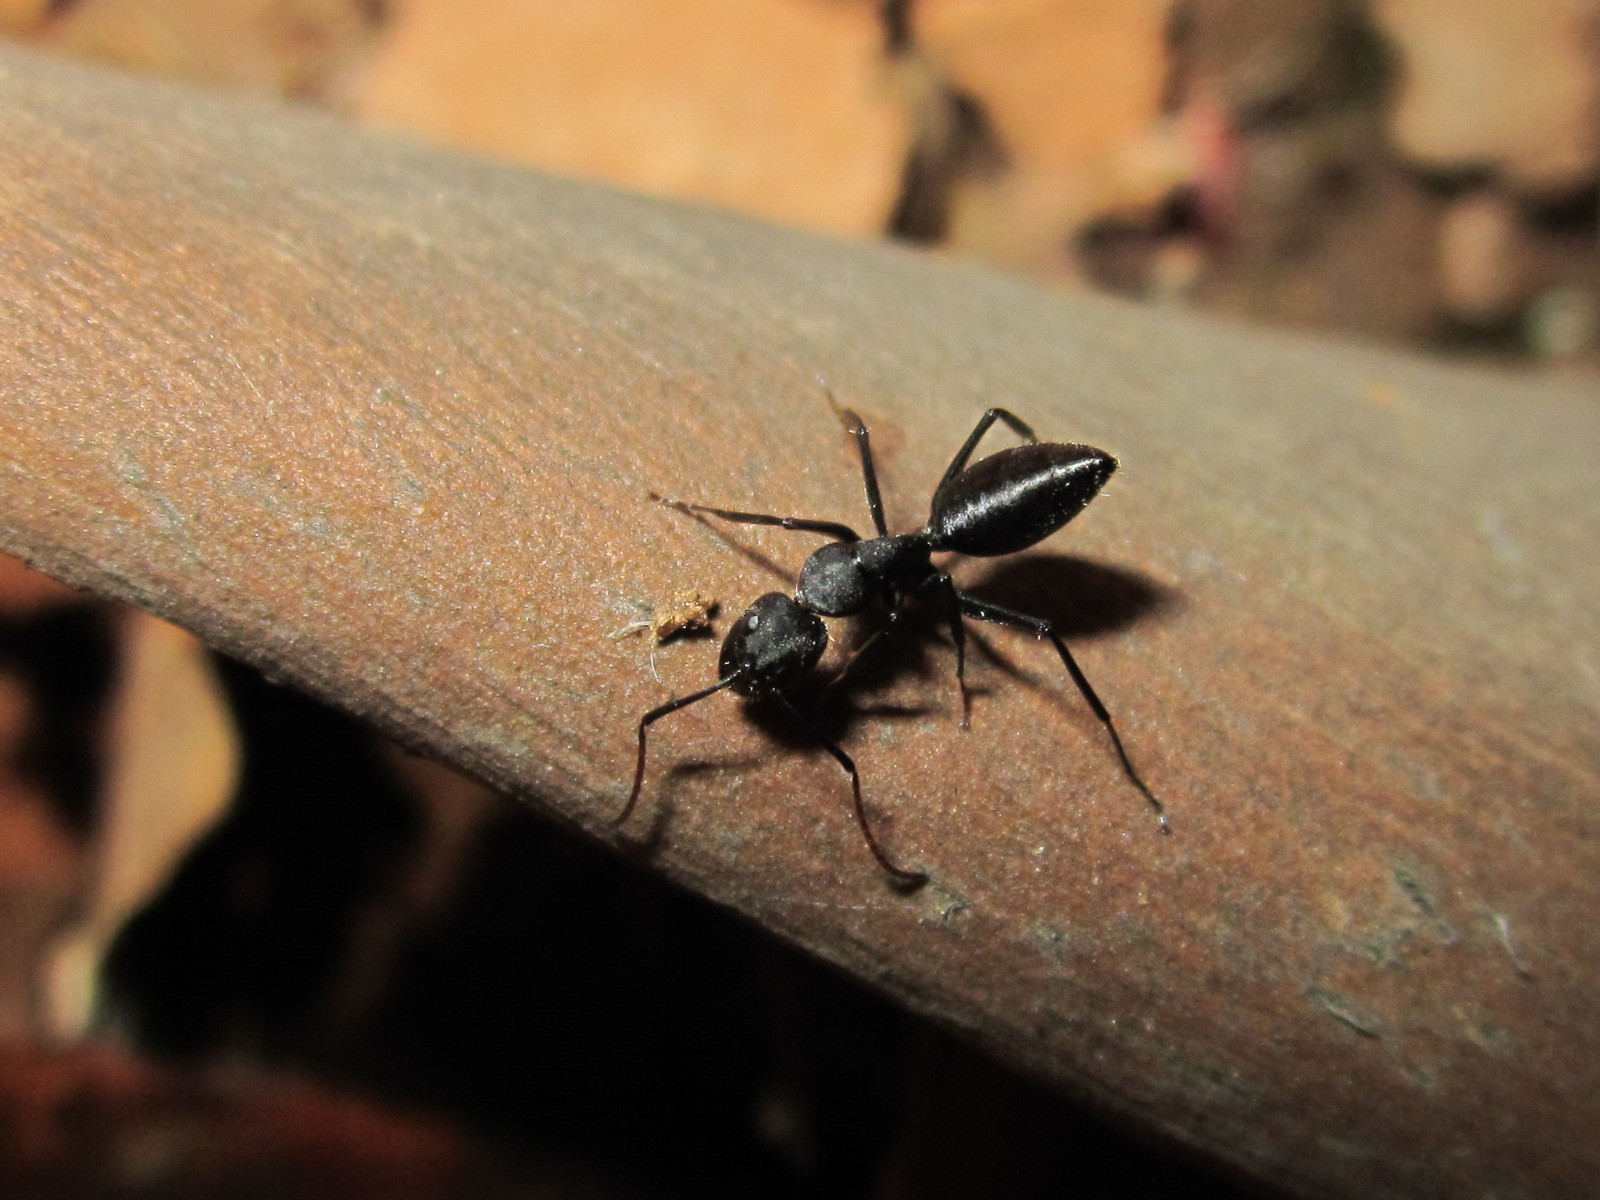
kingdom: Animalia
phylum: Arthropoda
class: Insecta
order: Hymenoptera
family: Formicidae
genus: Camponotus
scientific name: Camponotus morosus
